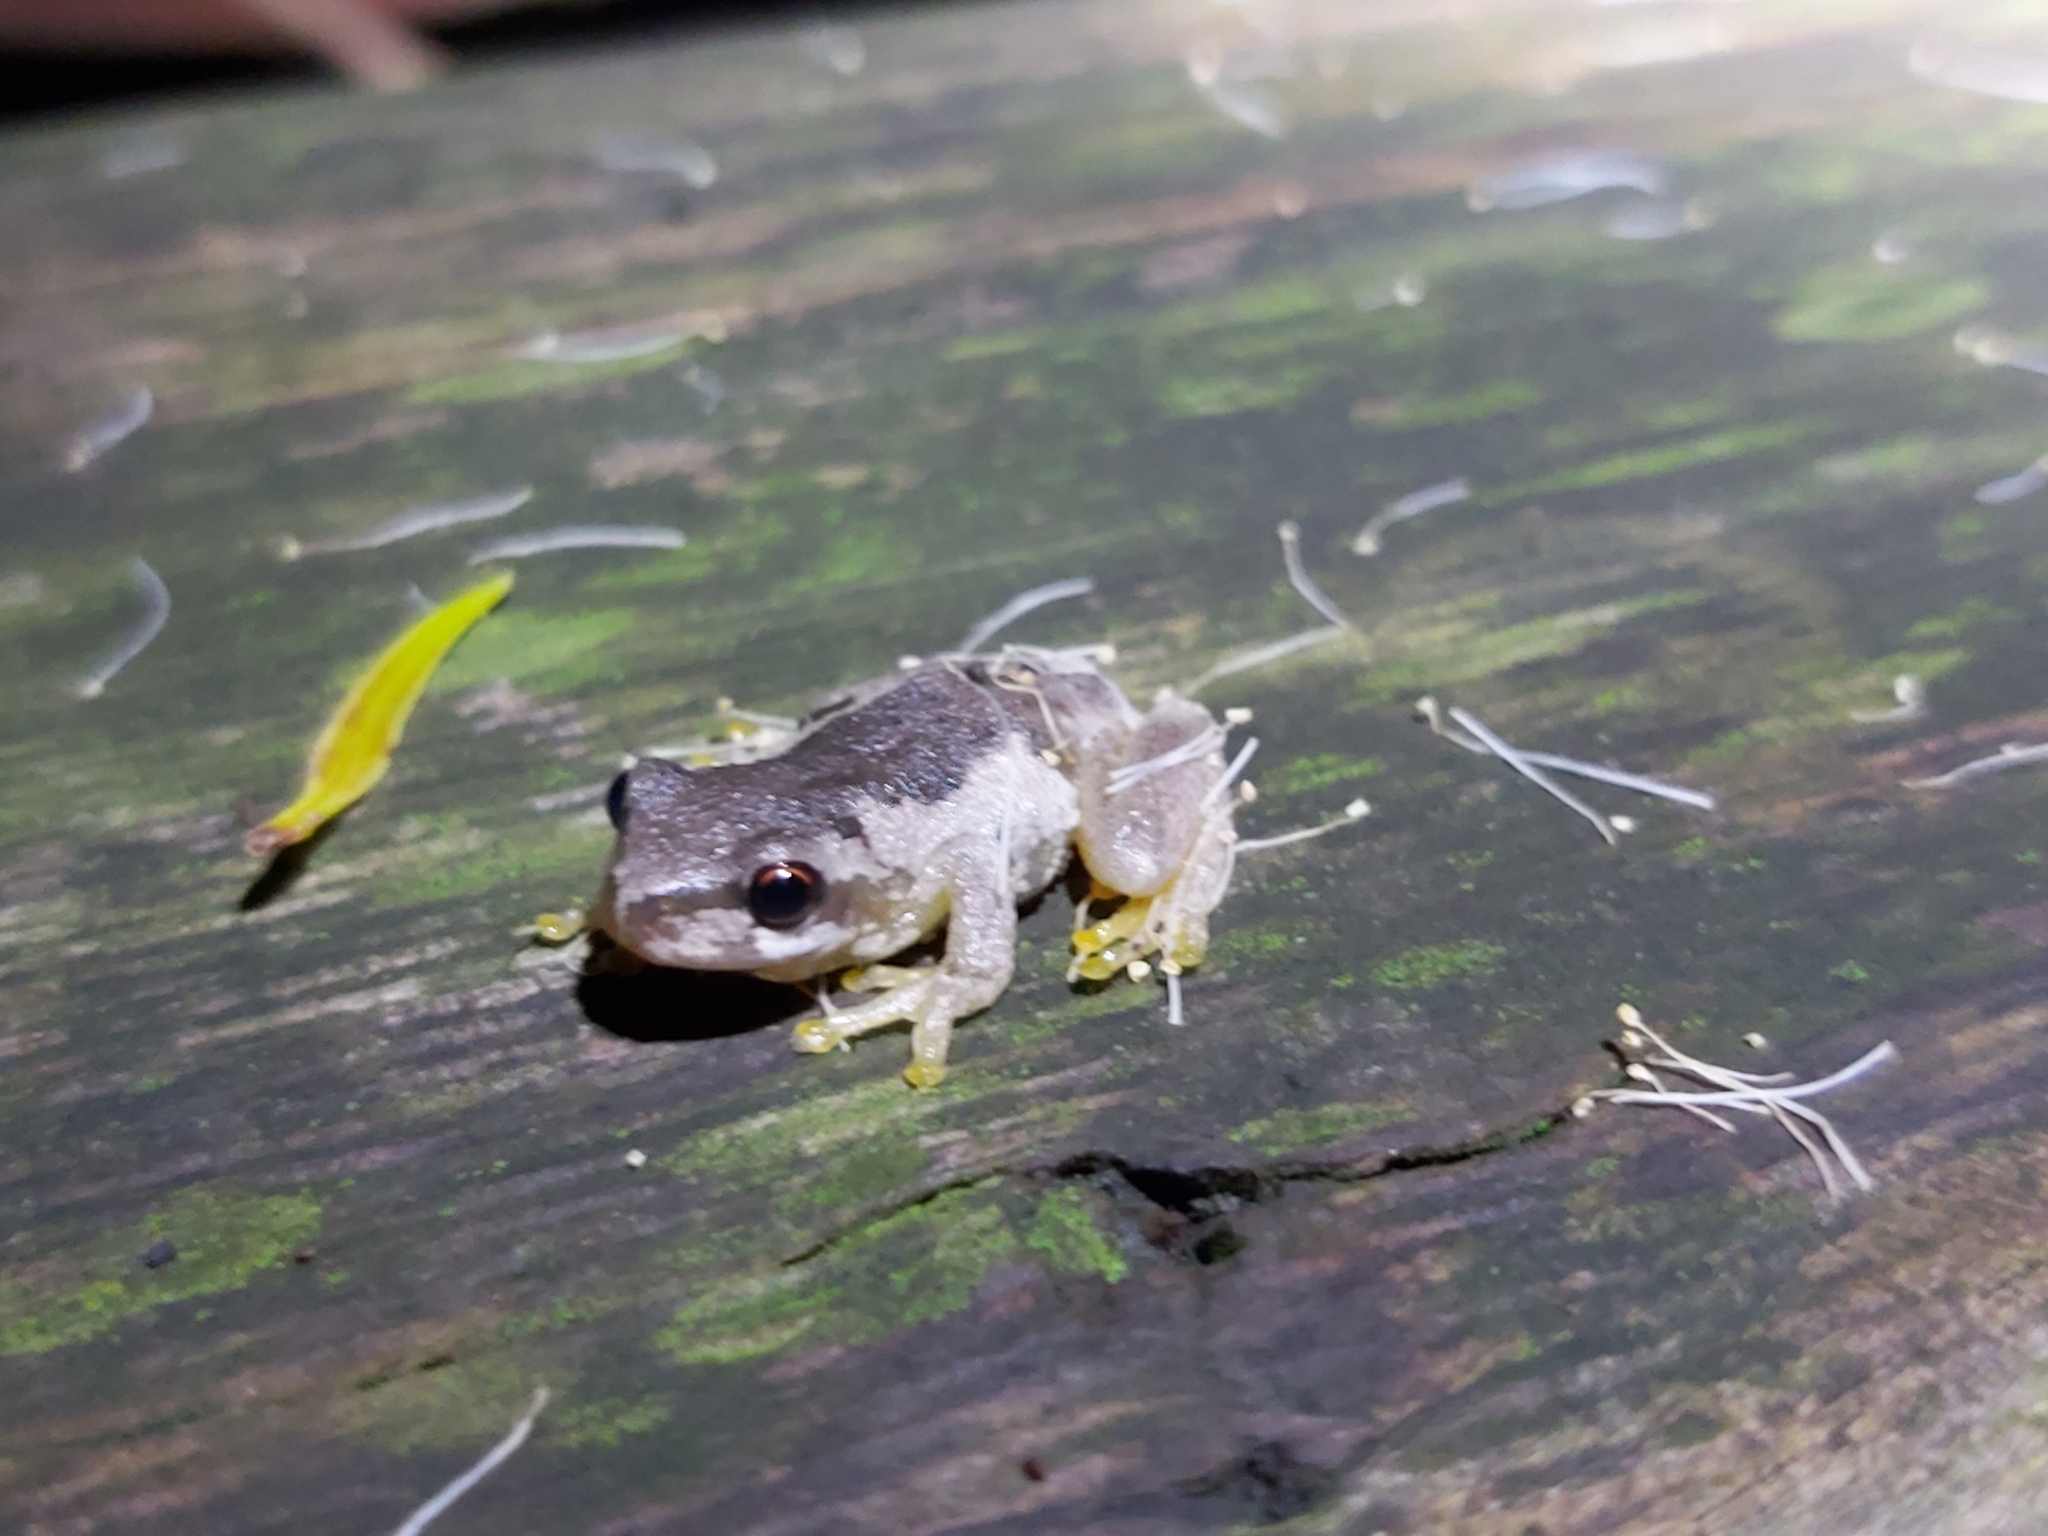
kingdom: Animalia
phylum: Chordata
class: Amphibia
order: Anura
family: Pelodryadidae
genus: Litoria
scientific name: Litoria quiritatus
